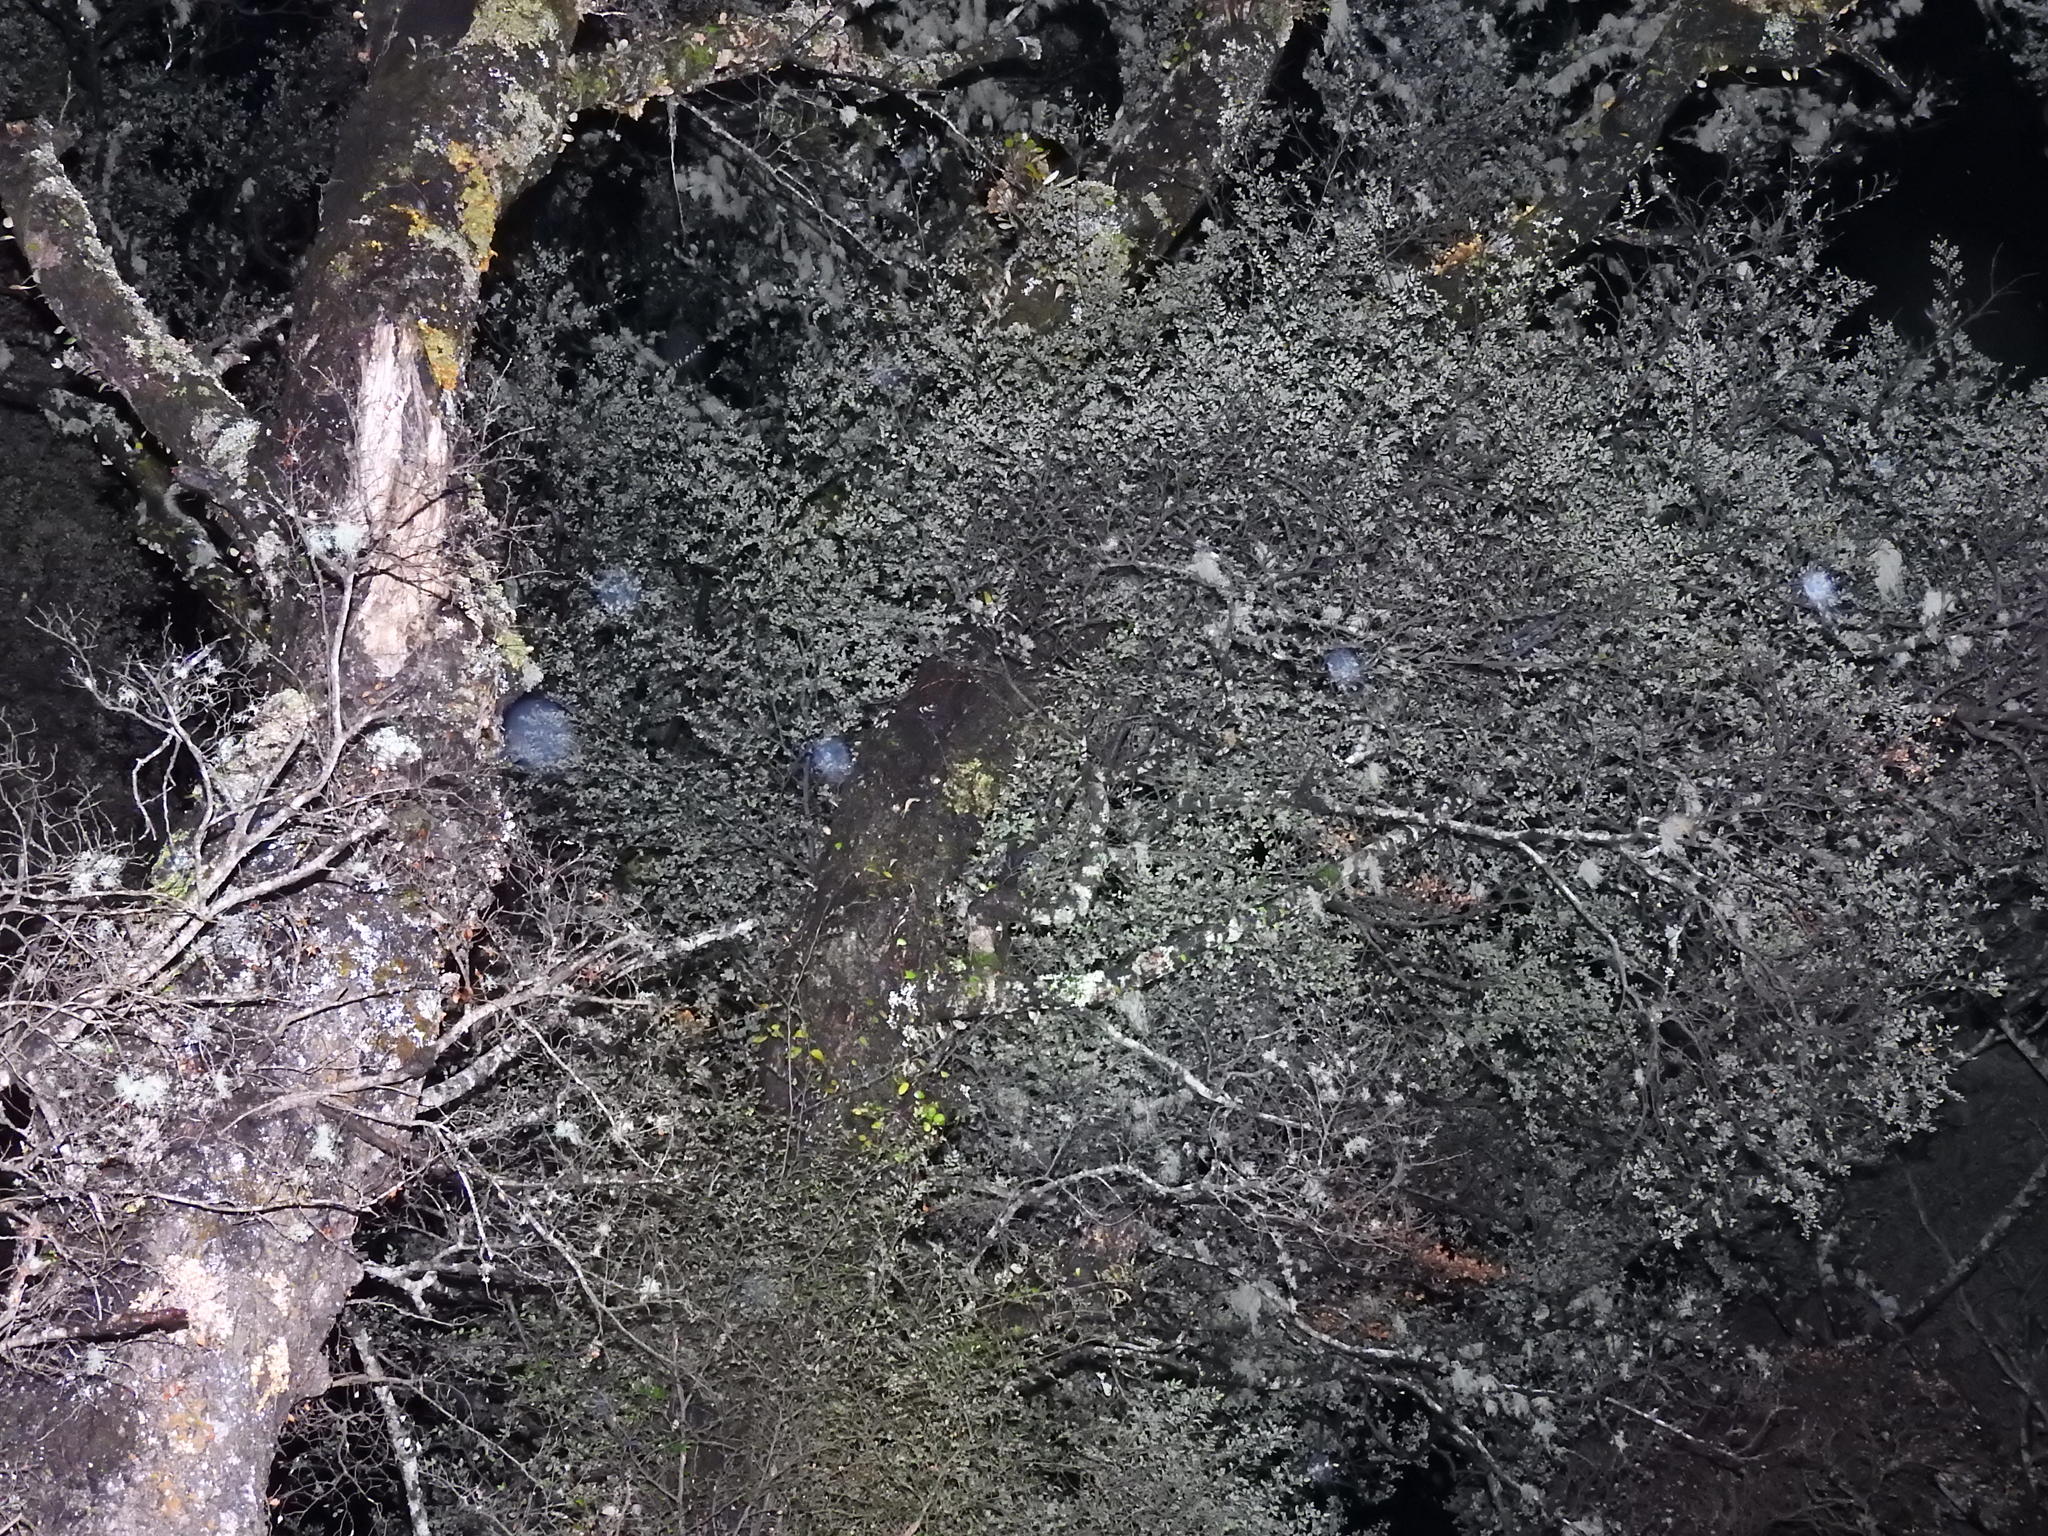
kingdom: Fungi
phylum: Basidiomycota
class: Agaricomycetes
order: Agaricales
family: Pleurotaceae
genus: Pleurotus
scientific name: Pleurotus purpureo-olivaceus
